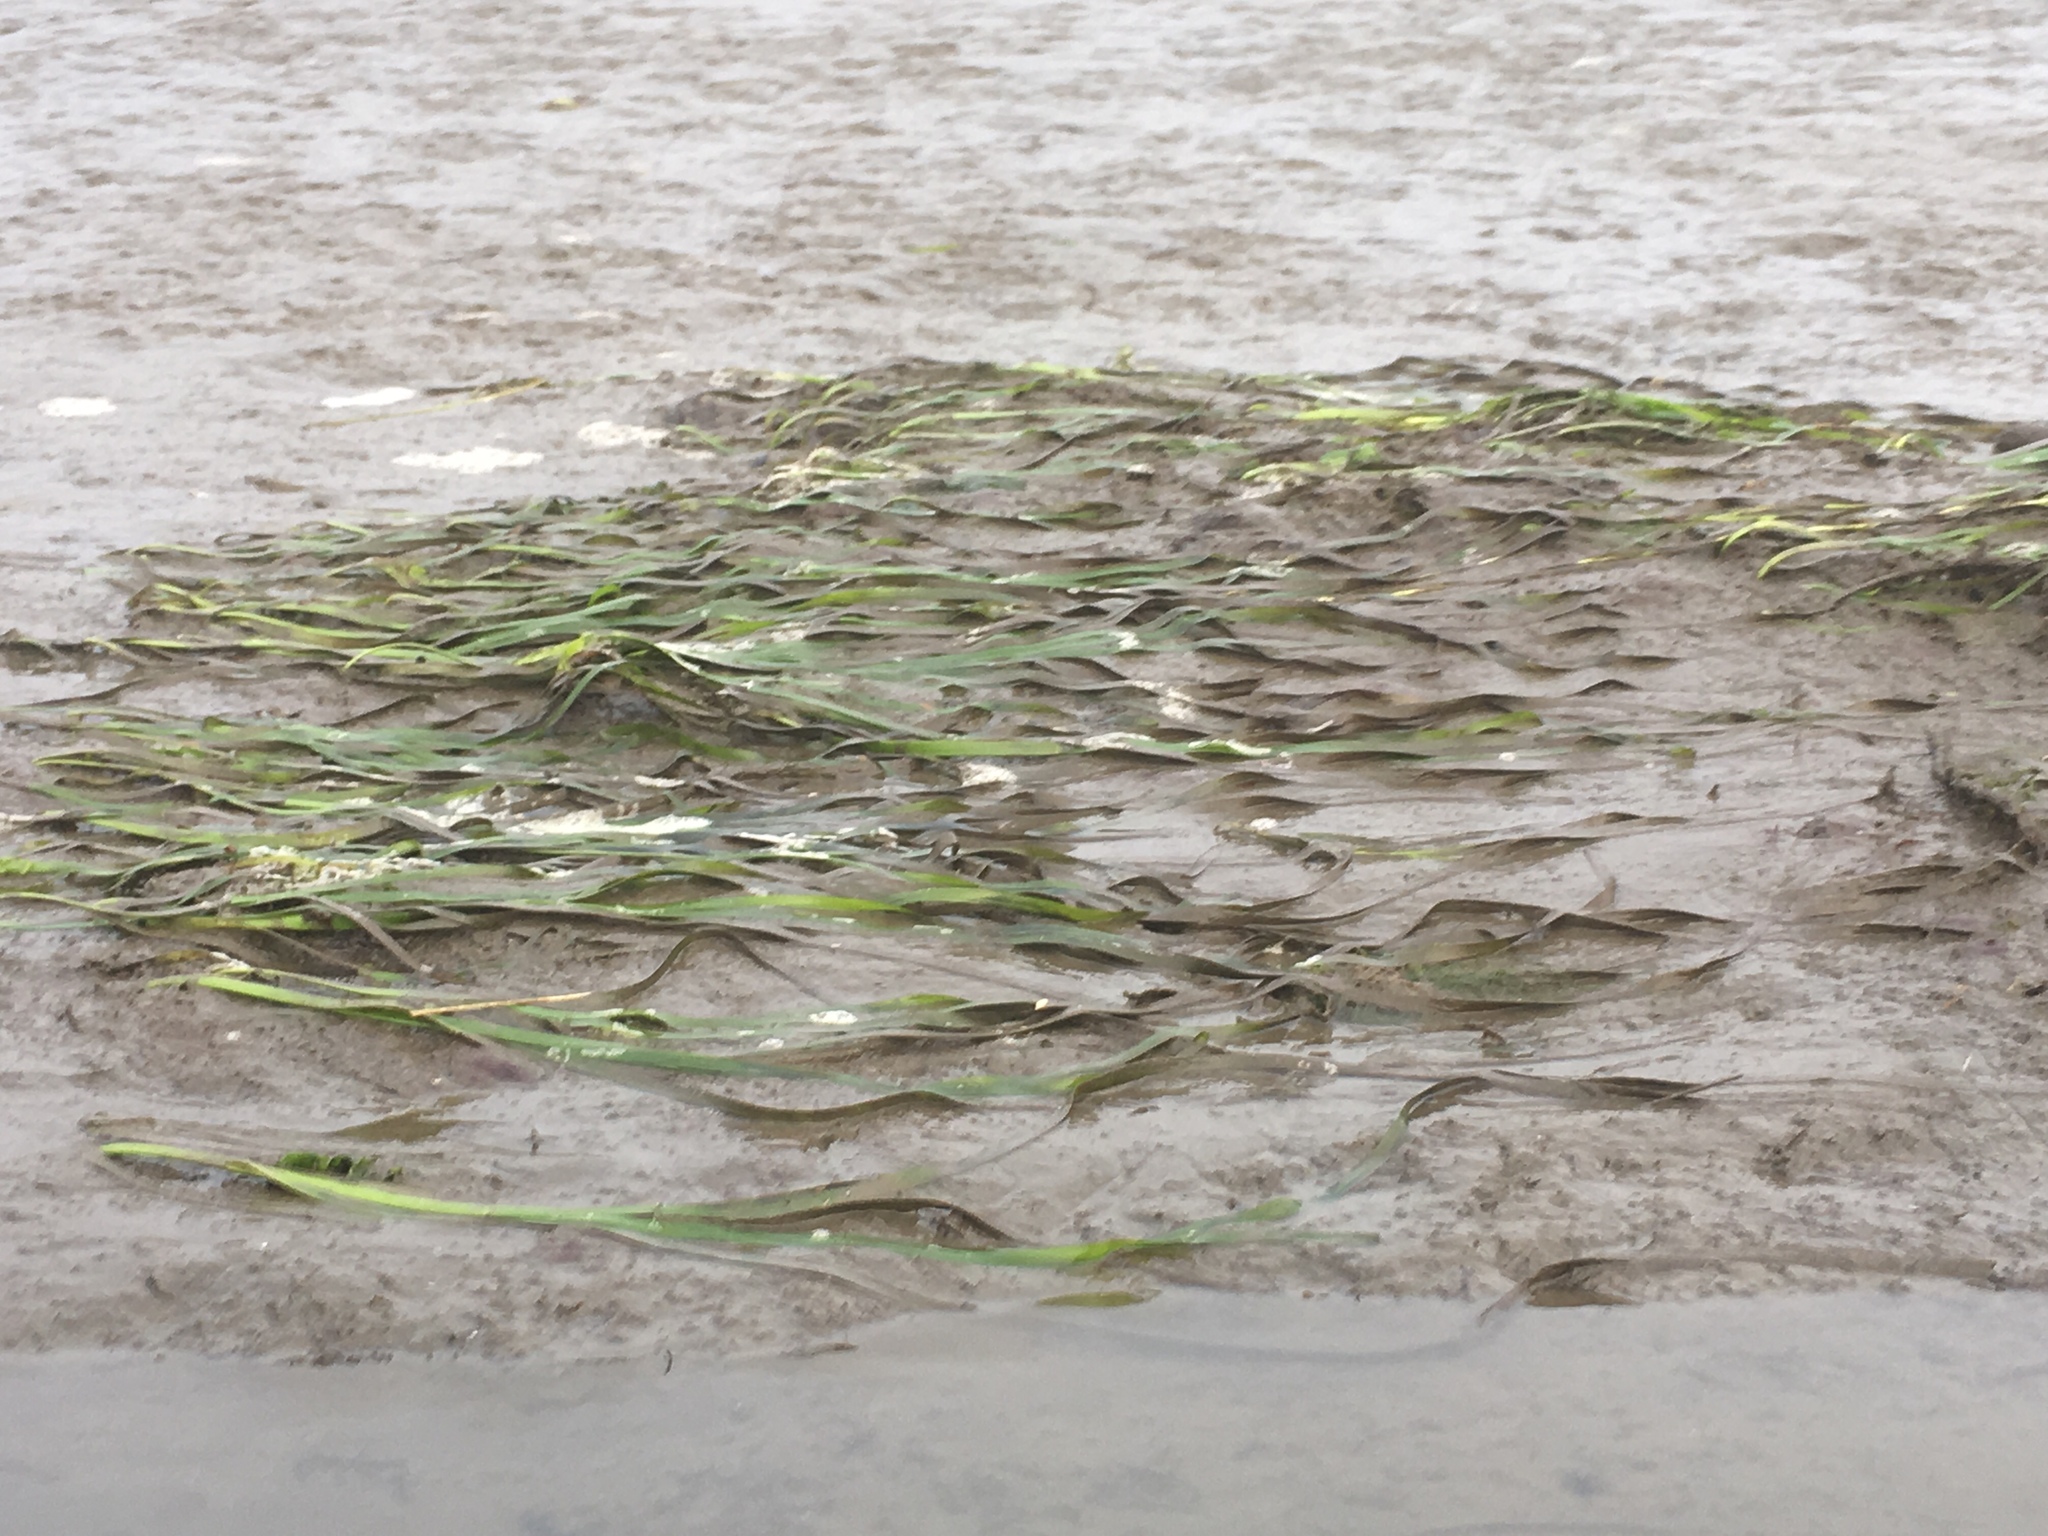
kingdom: Plantae
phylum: Tracheophyta
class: Liliopsida
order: Alismatales
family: Zosteraceae
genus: Zostera
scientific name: Zostera marina
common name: Eelgrass
